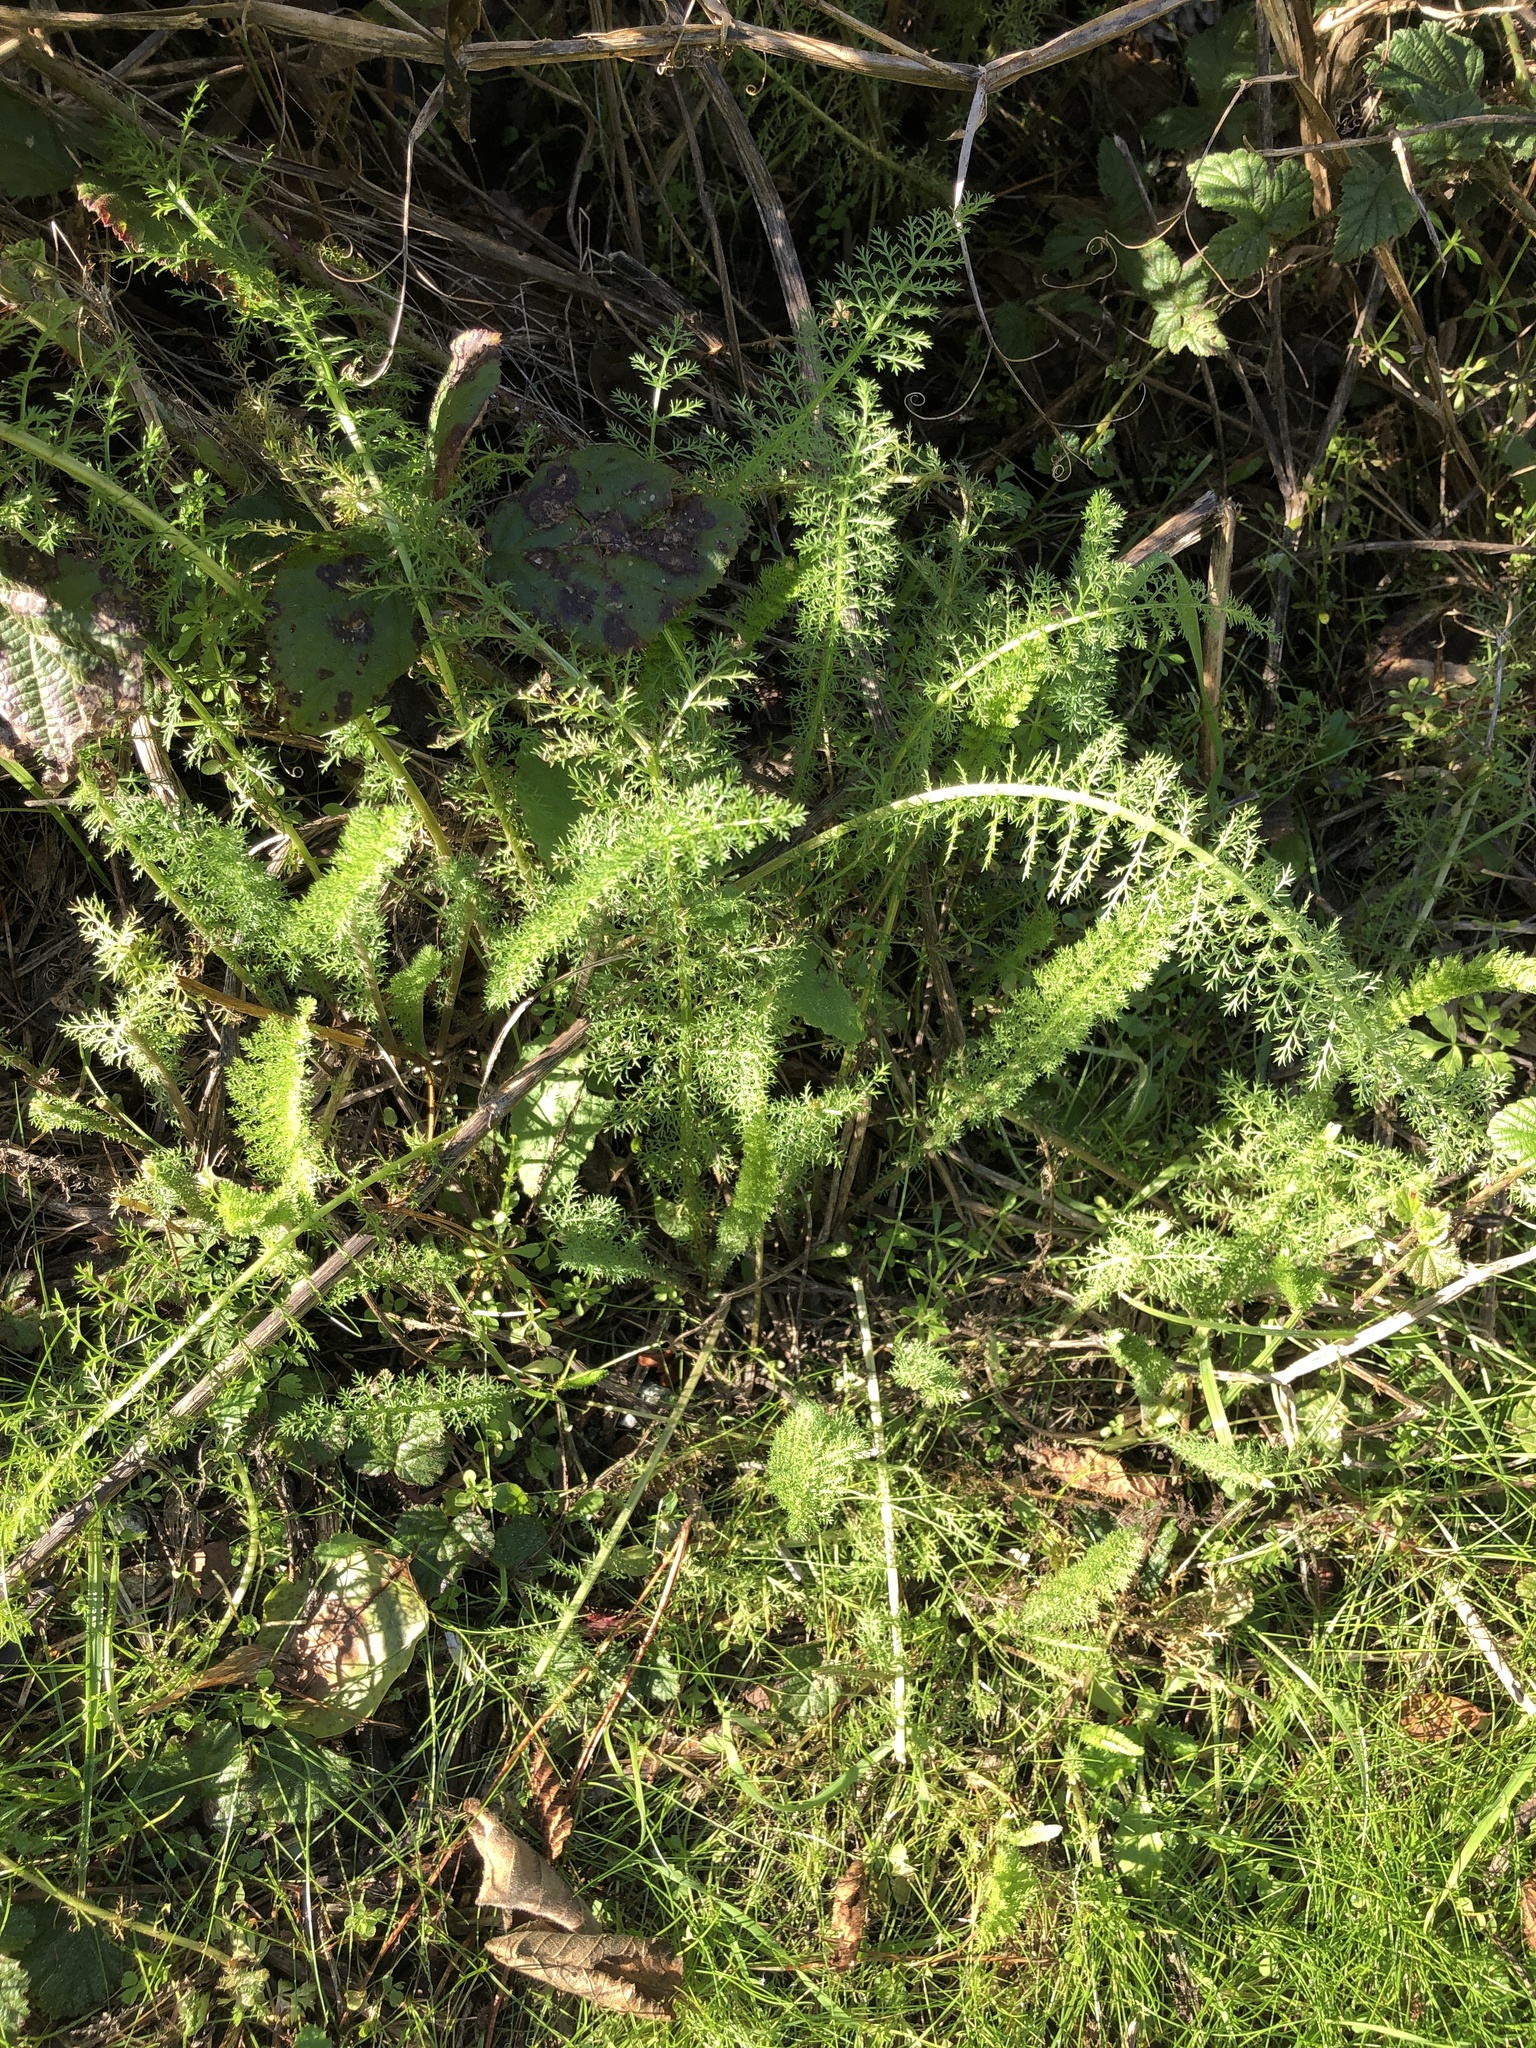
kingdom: Plantae
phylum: Tracheophyta
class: Magnoliopsida
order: Asterales
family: Asteraceae
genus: Achillea
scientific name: Achillea millefolium
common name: Yarrow
